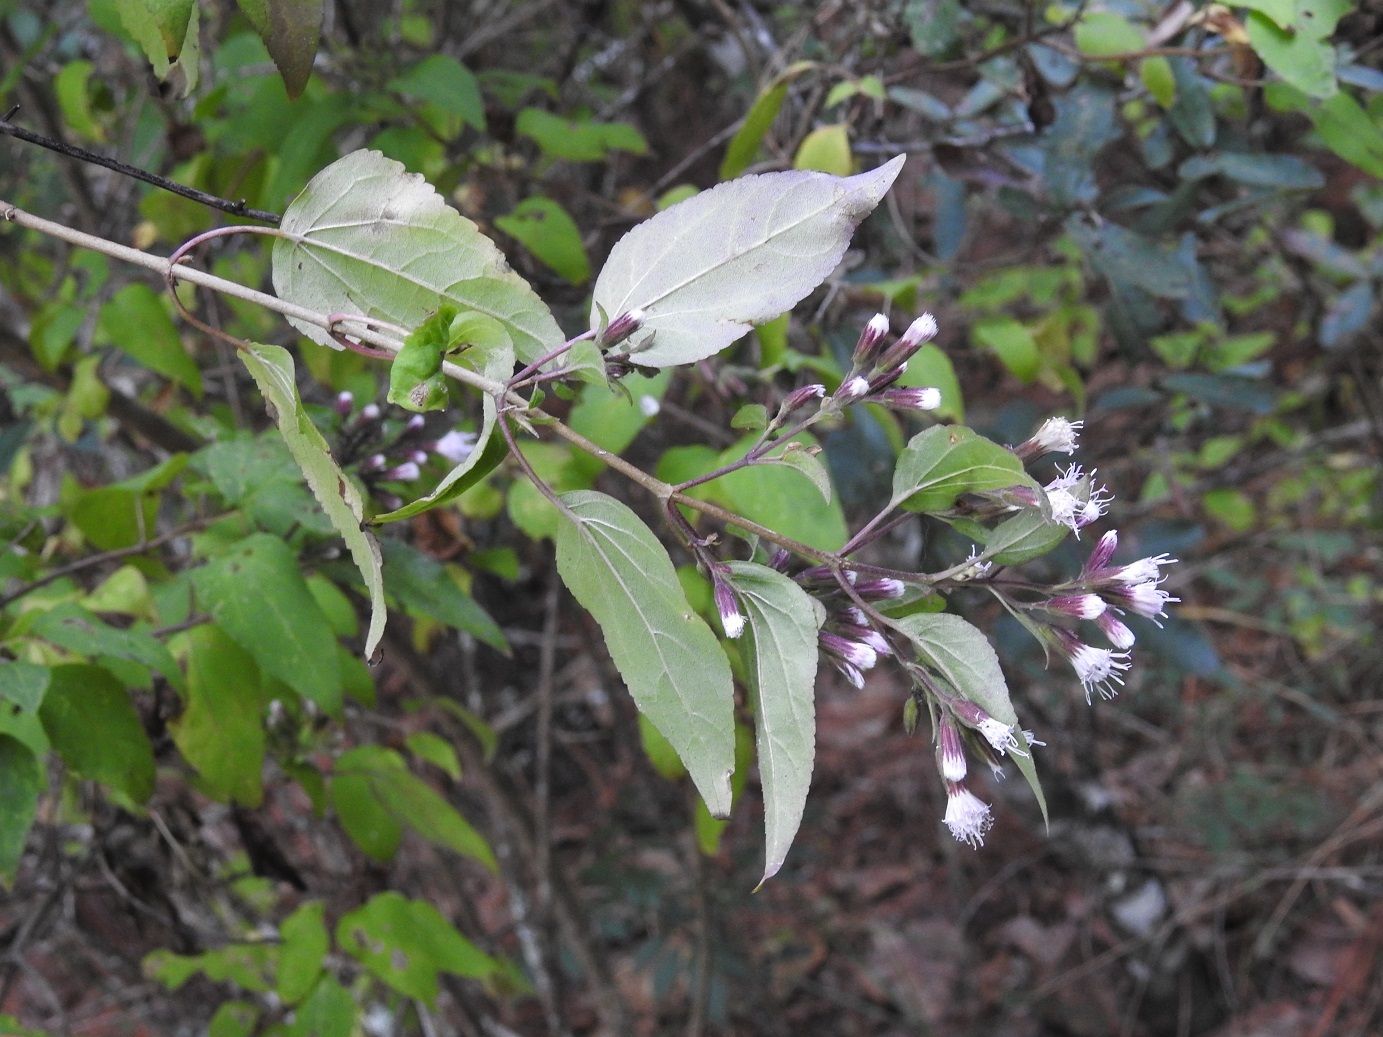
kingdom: Plantae
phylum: Tracheophyta
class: Magnoliopsida
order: Asterales
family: Asteraceae
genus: Ageratina
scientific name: Ageratina mairetiana
